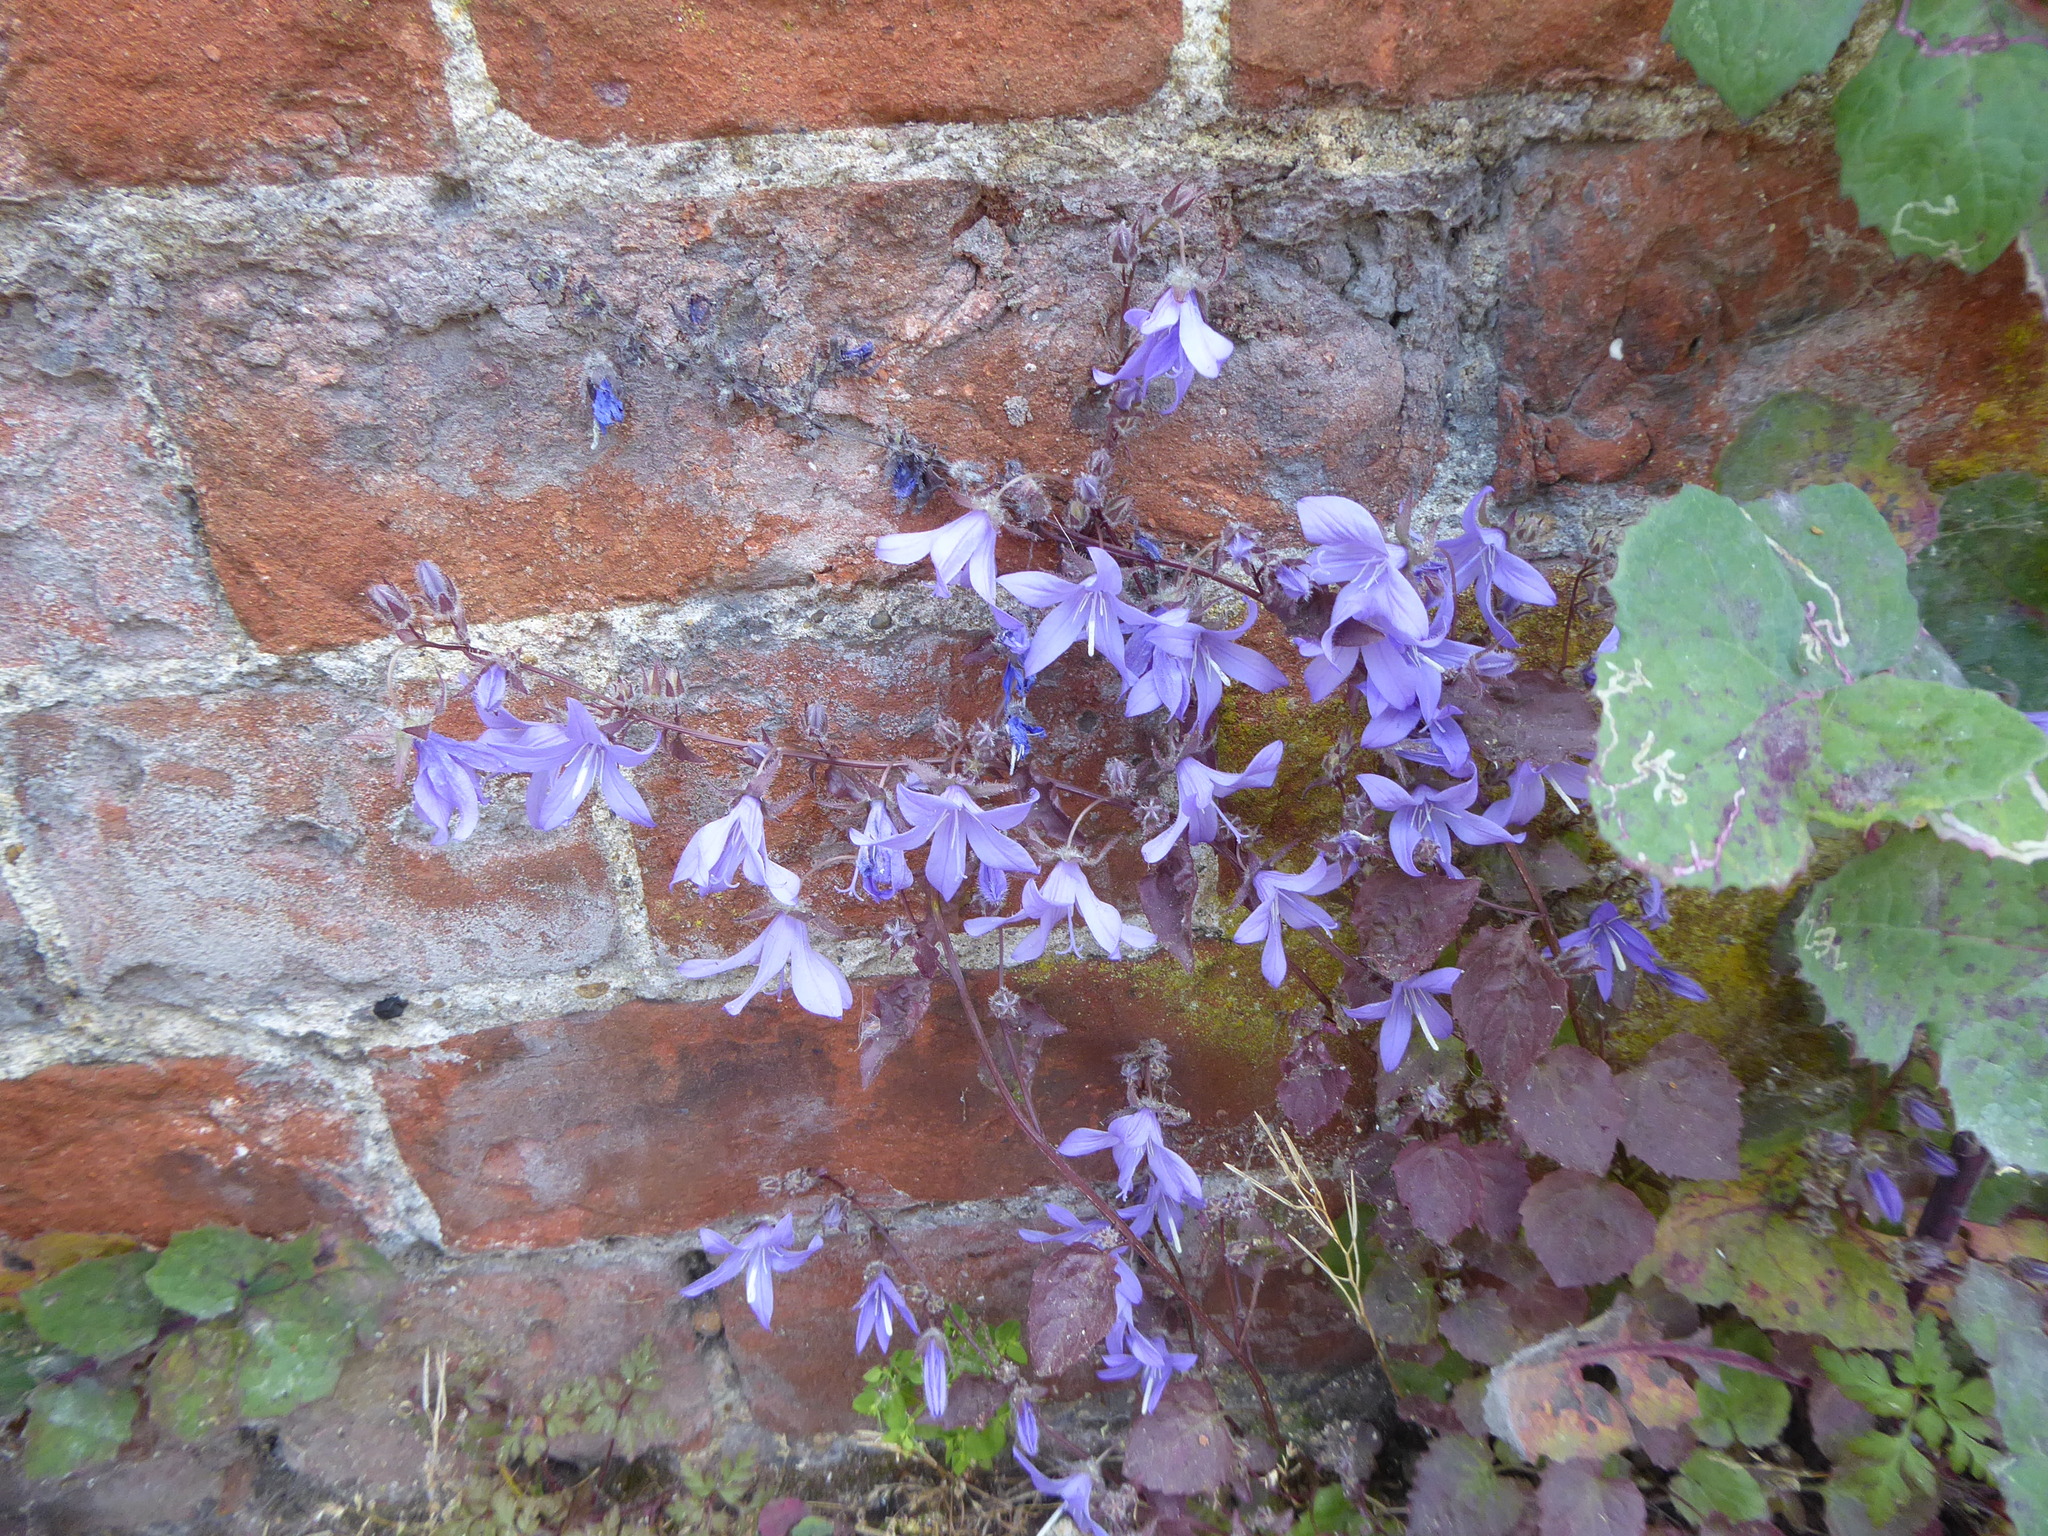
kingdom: Plantae
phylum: Tracheophyta
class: Magnoliopsida
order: Asterales
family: Campanulaceae
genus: Campanula
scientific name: Campanula poscharskyana
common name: Trailing bellflower
